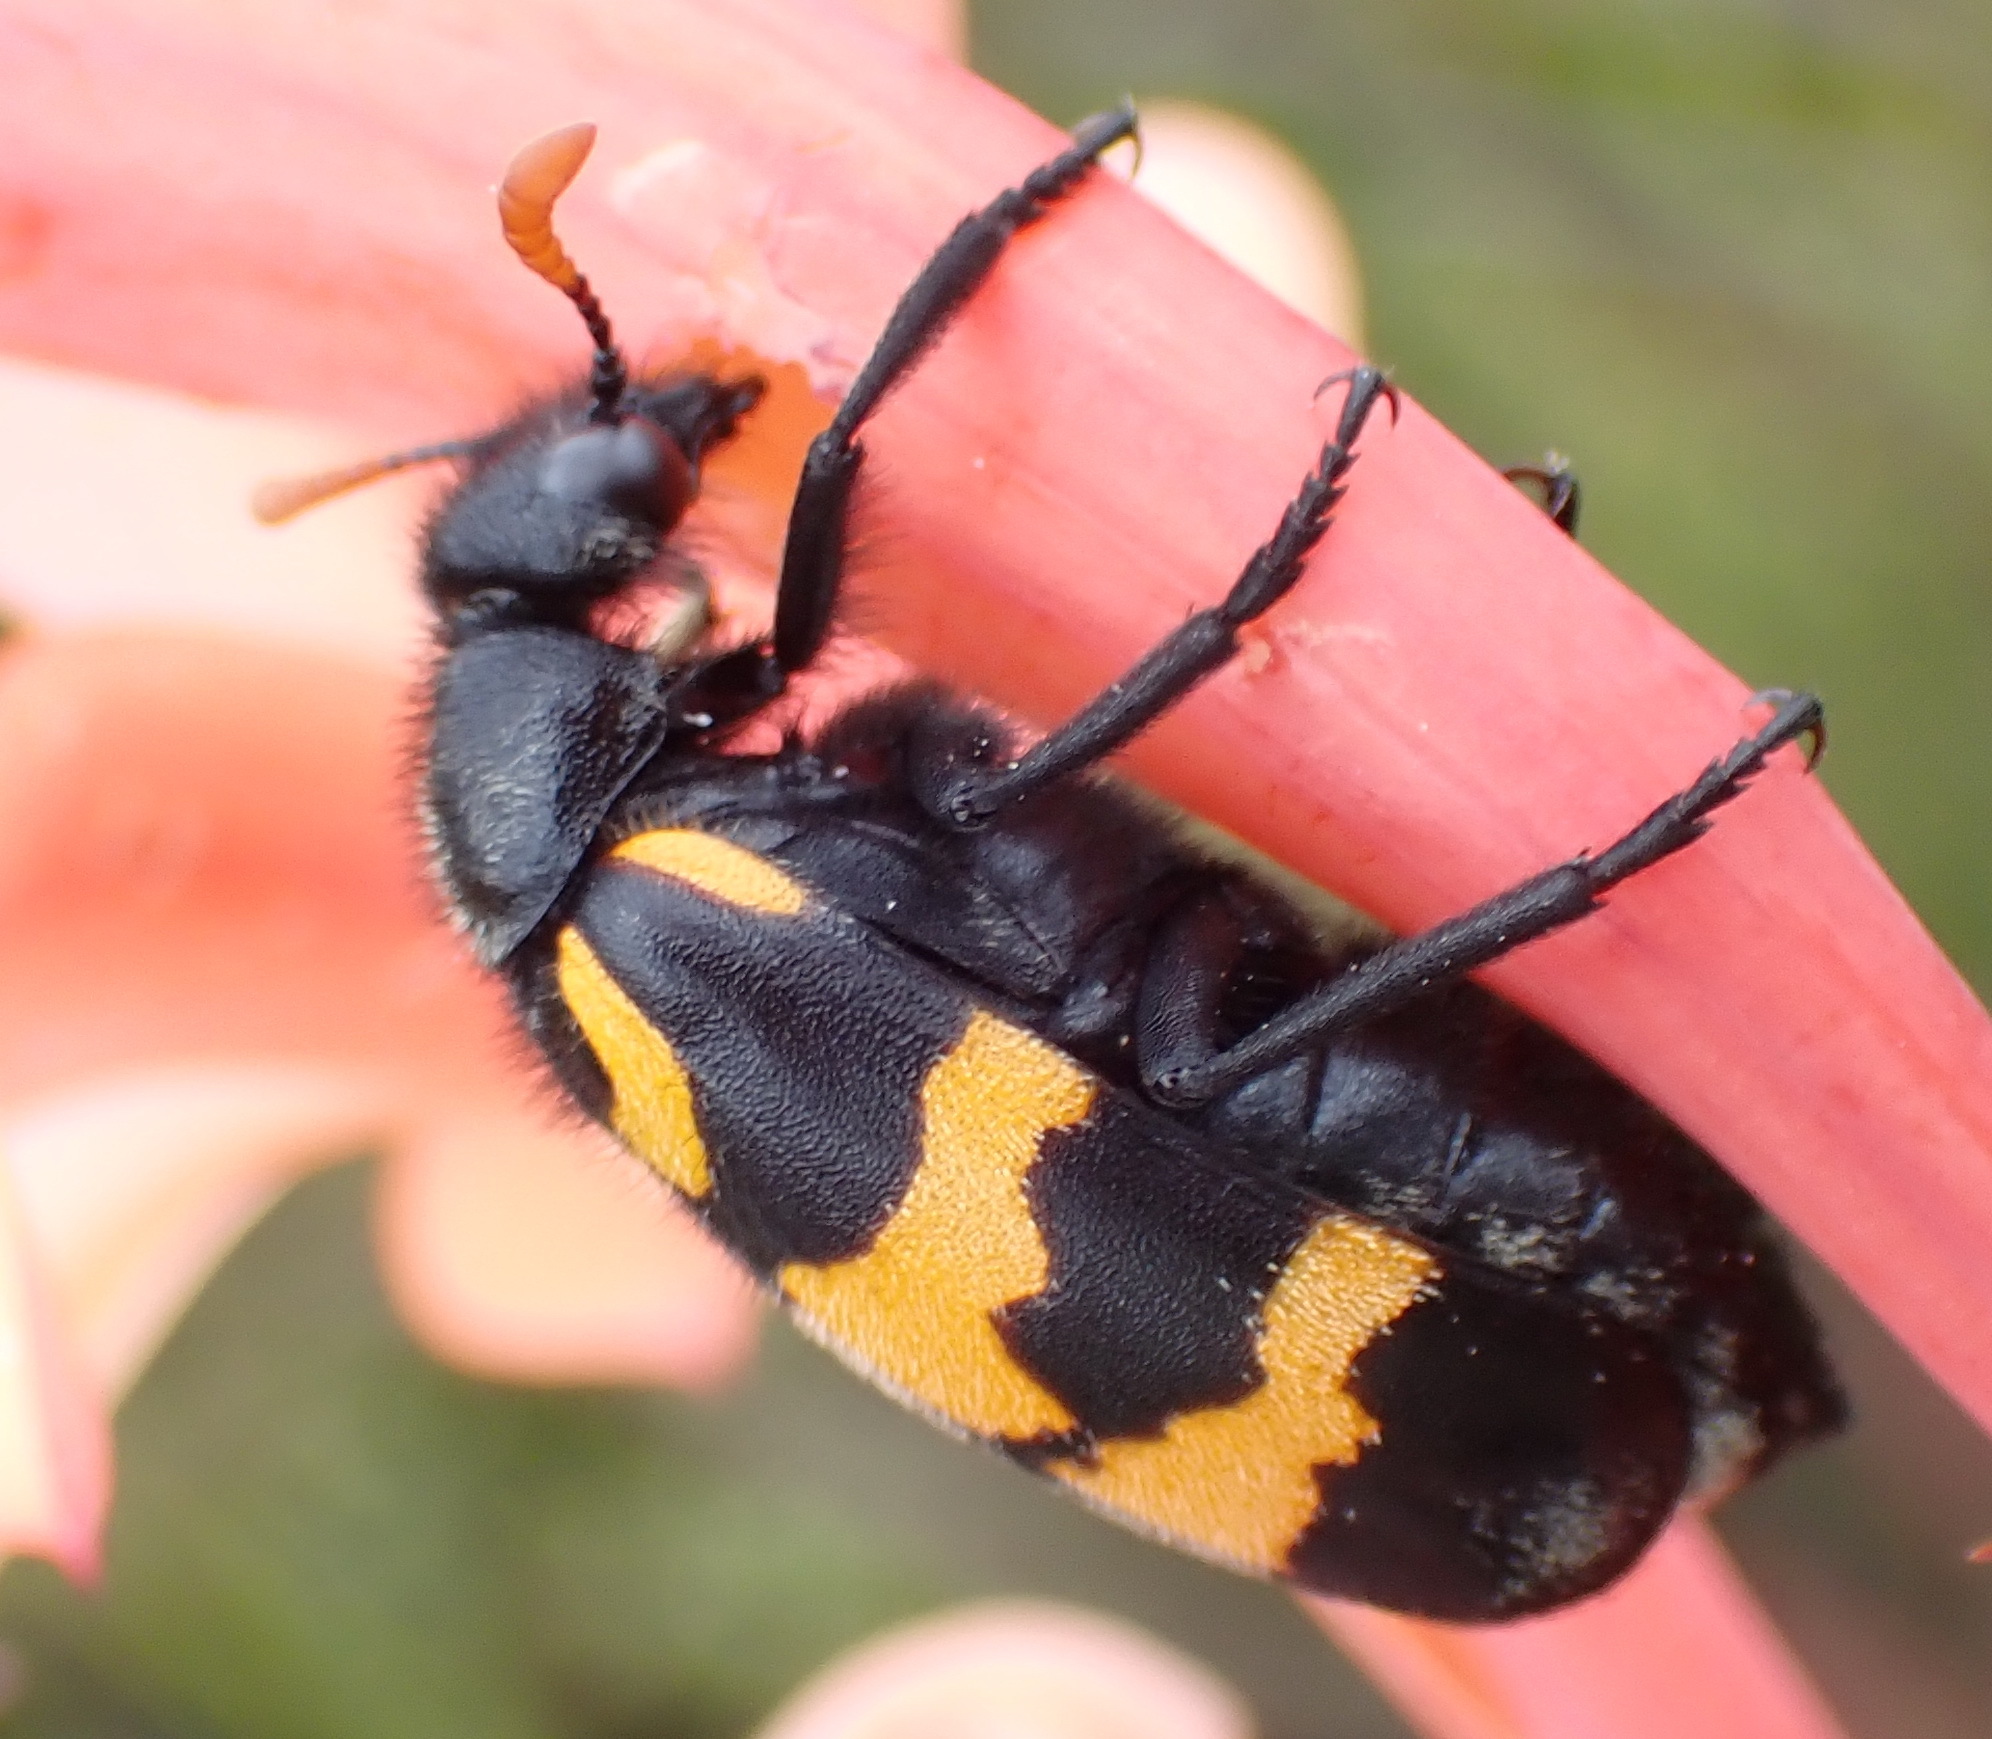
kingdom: Animalia
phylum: Arthropoda
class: Insecta
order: Coleoptera
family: Meloidae
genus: Meloe
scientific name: Meloe lunata
